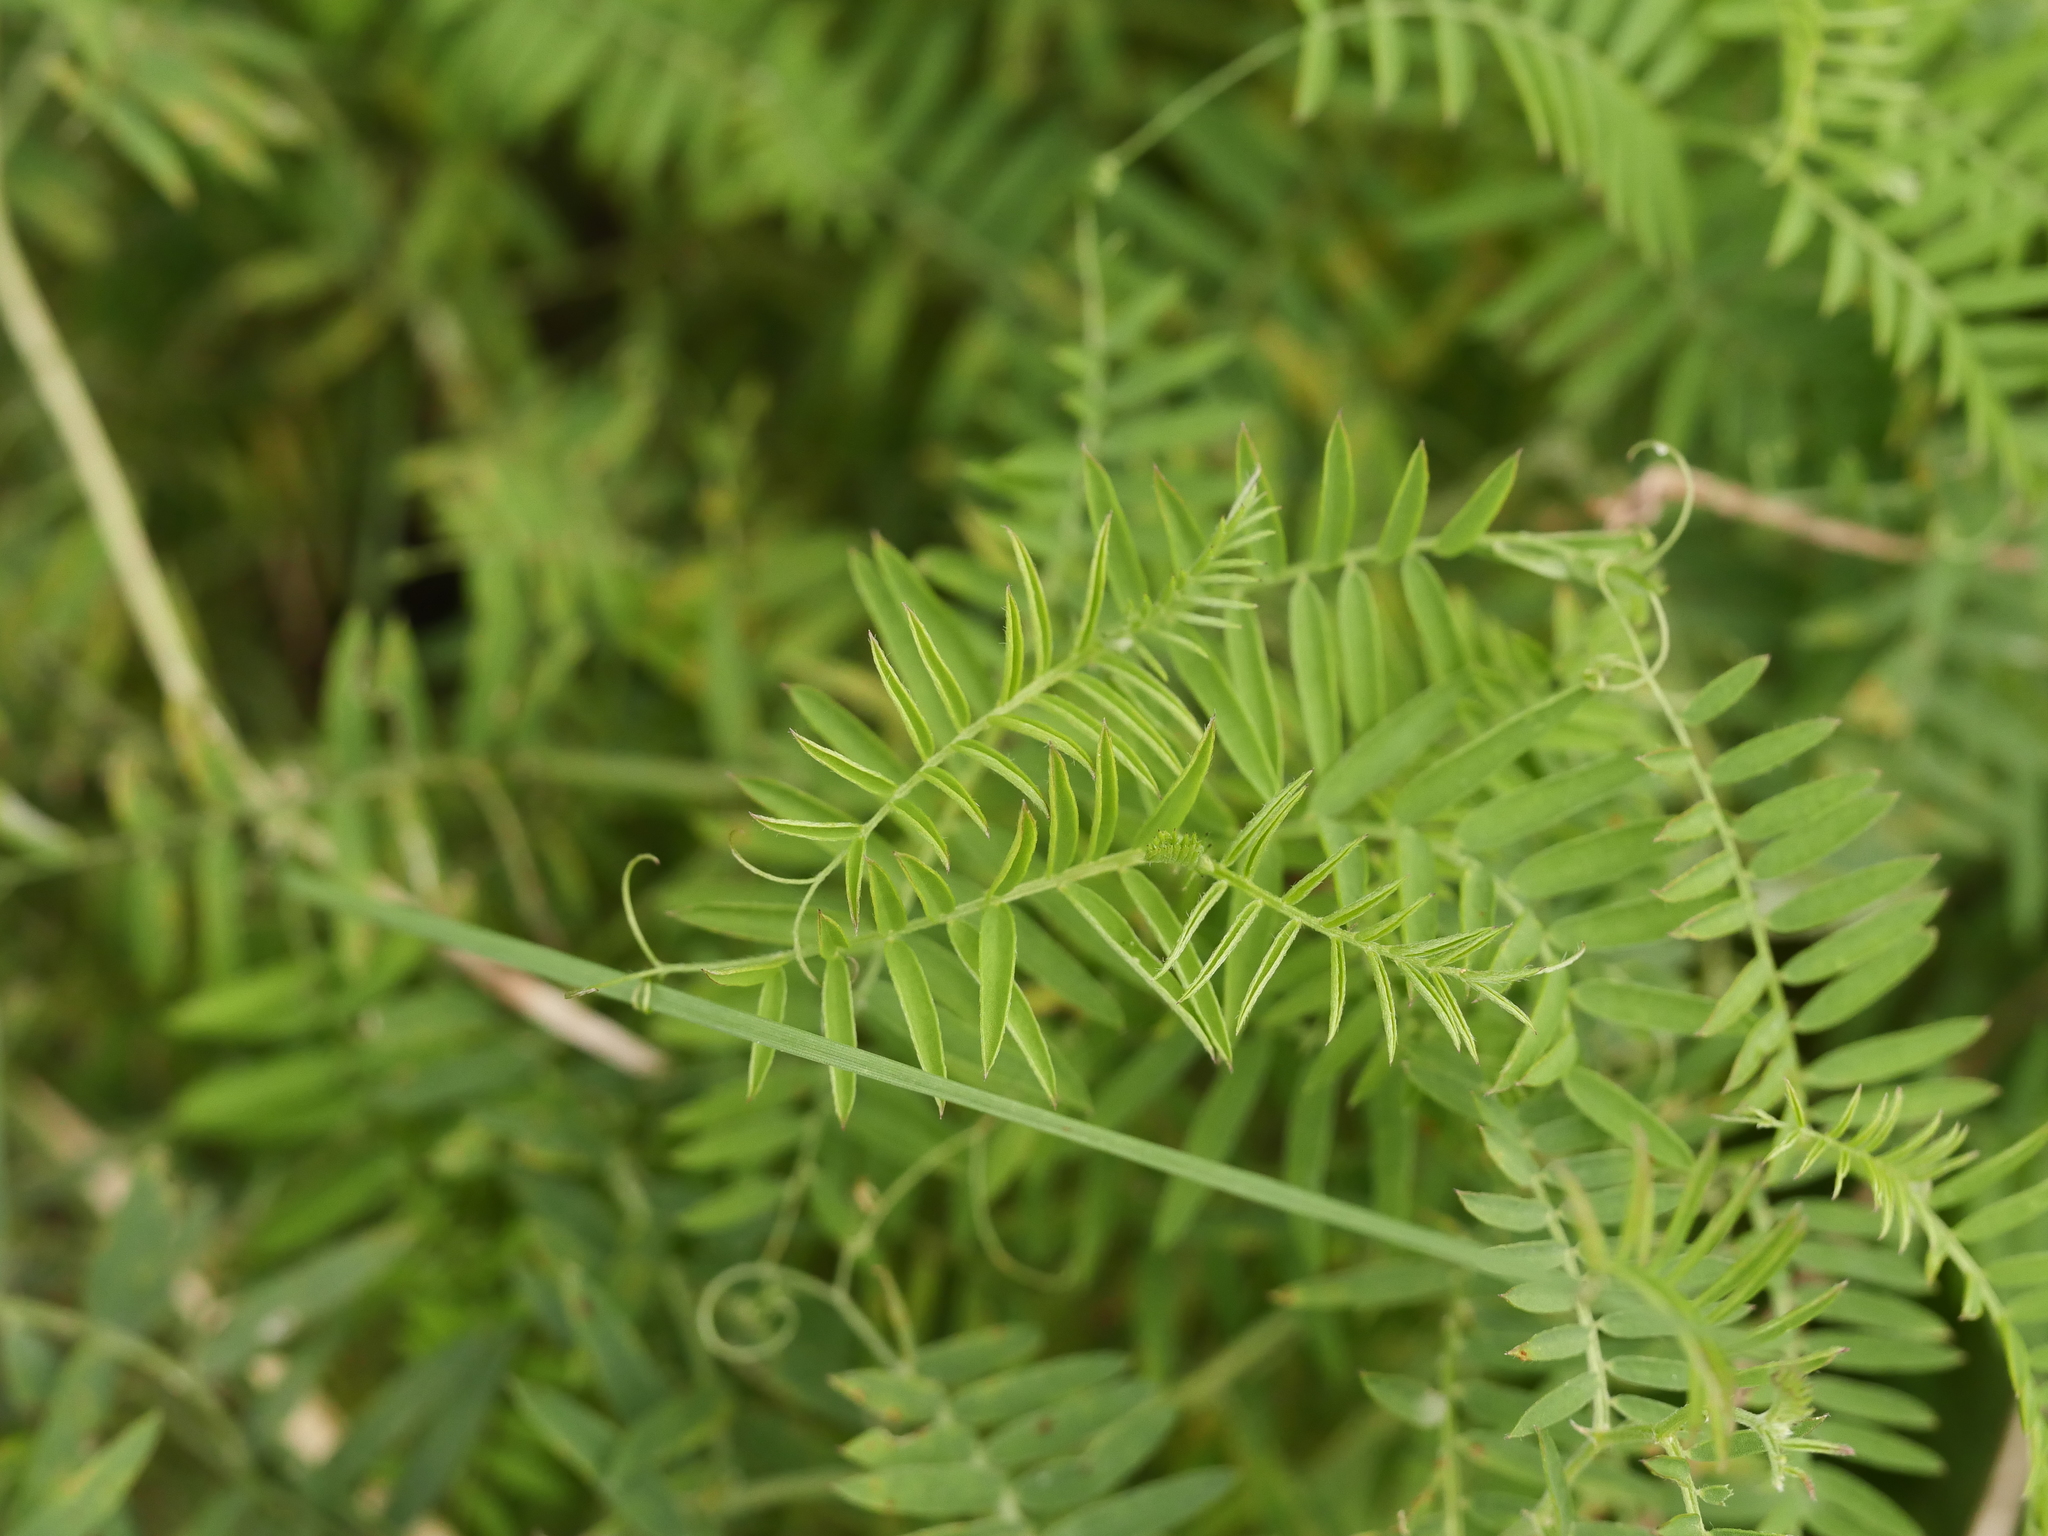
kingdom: Plantae
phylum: Tracheophyta
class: Magnoliopsida
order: Fabales
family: Fabaceae
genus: Vicia
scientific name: Vicia cracca
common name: Bird vetch
